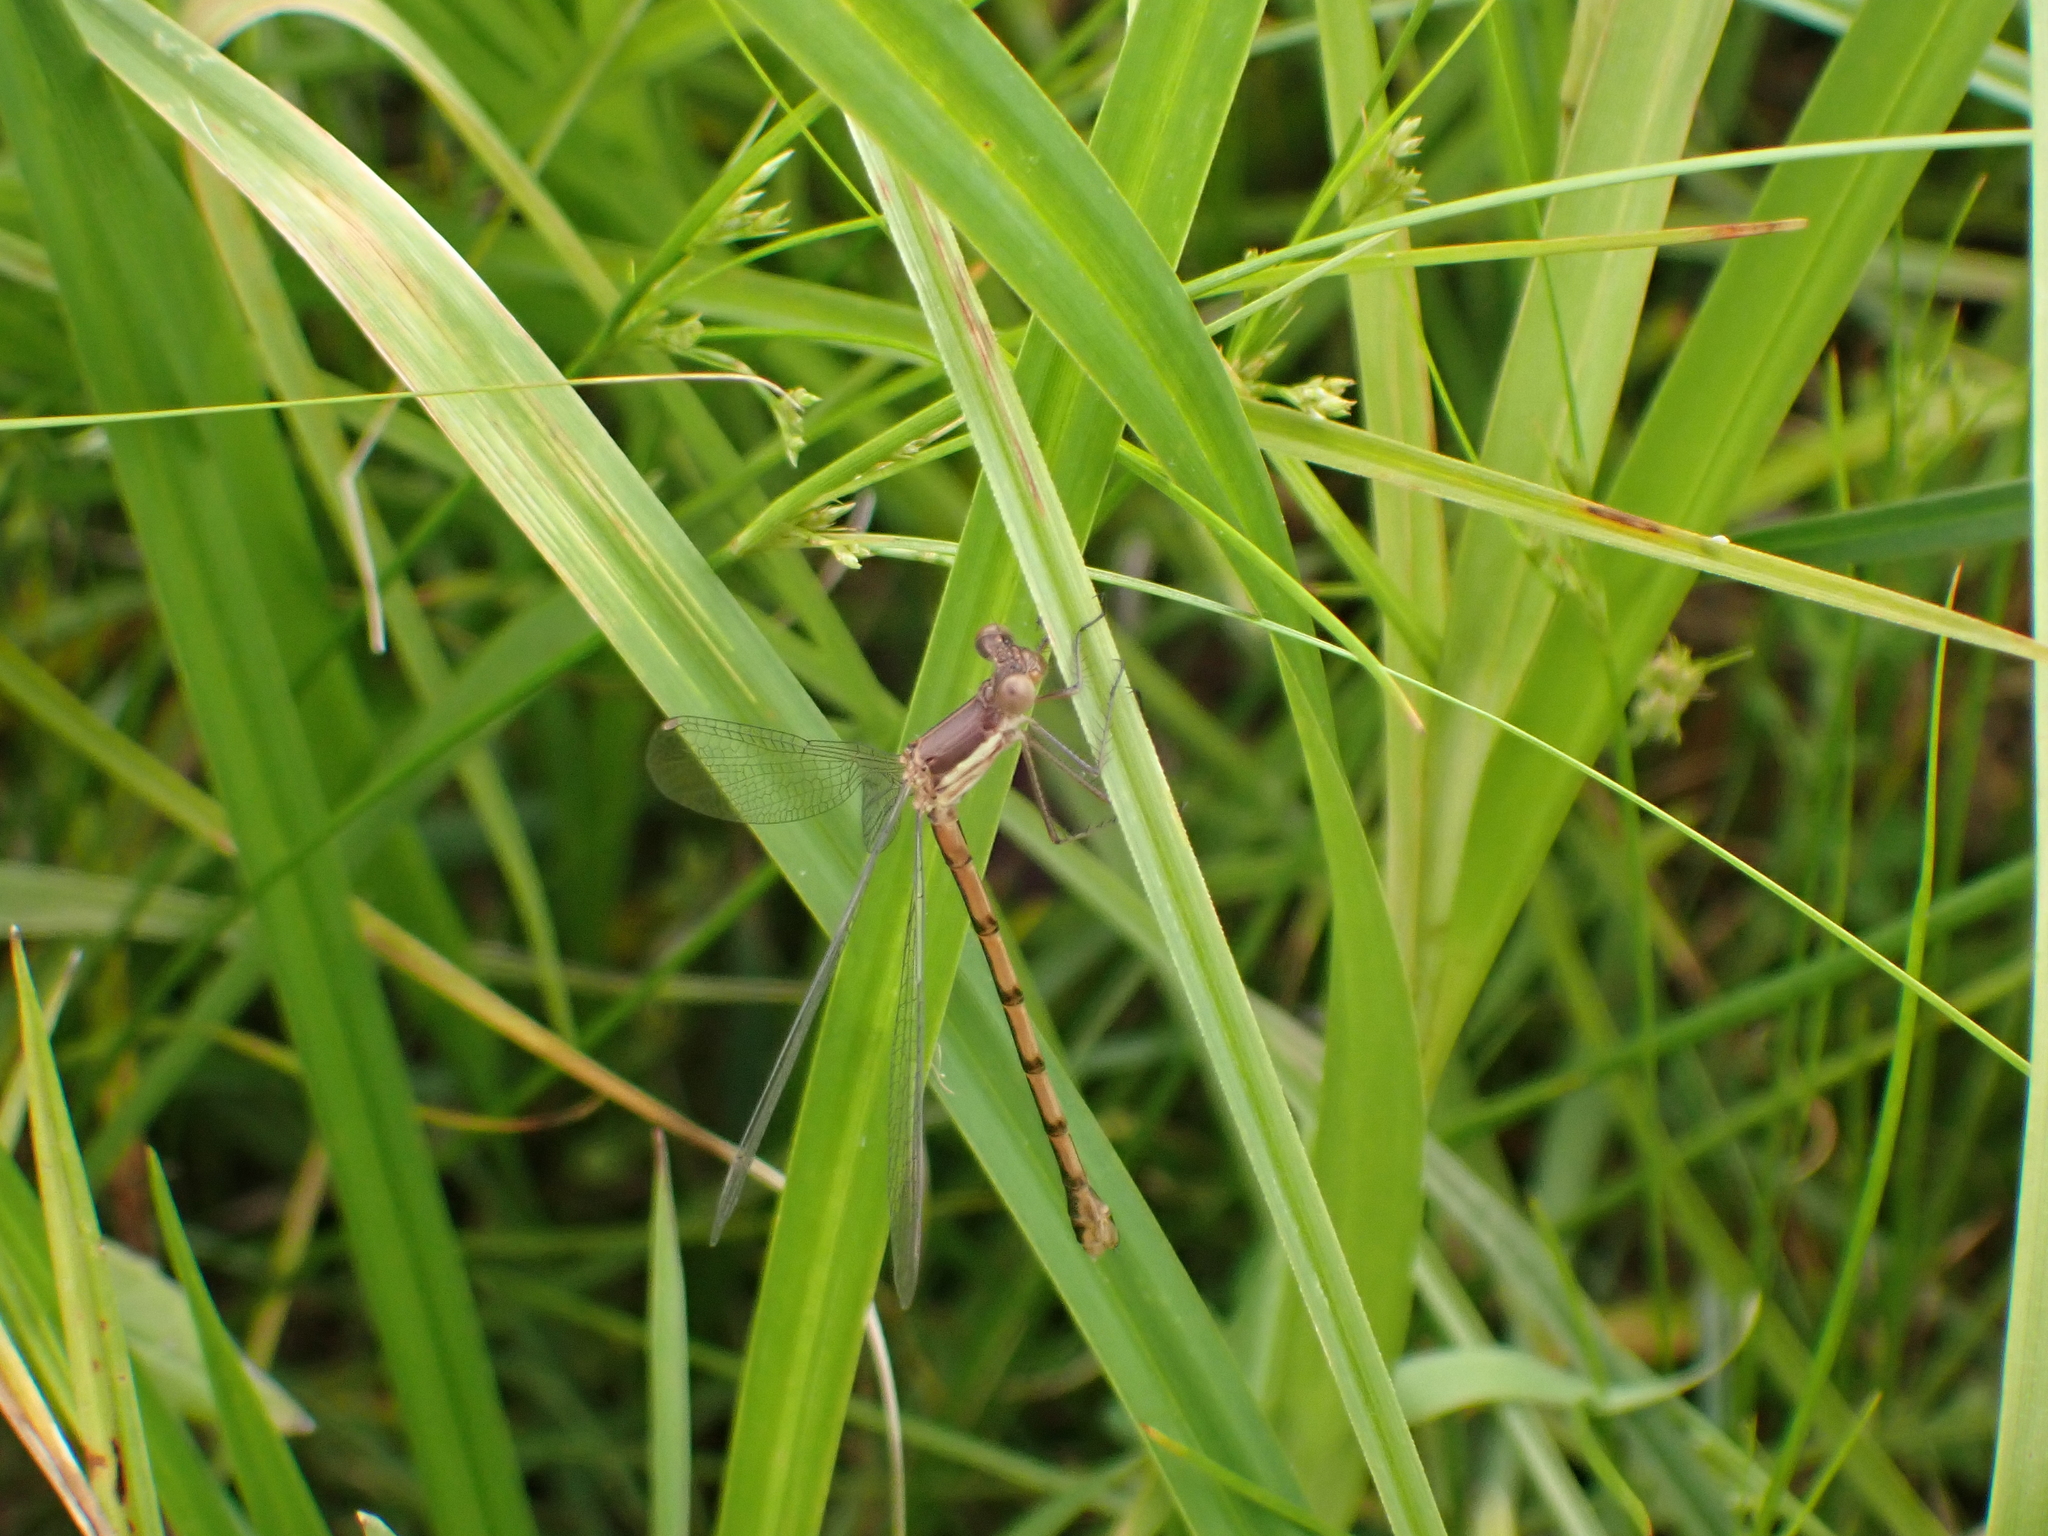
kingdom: Animalia
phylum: Arthropoda
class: Insecta
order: Odonata
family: Lestidae
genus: Archilestes
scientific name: Archilestes grandis
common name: Great spreadwing
